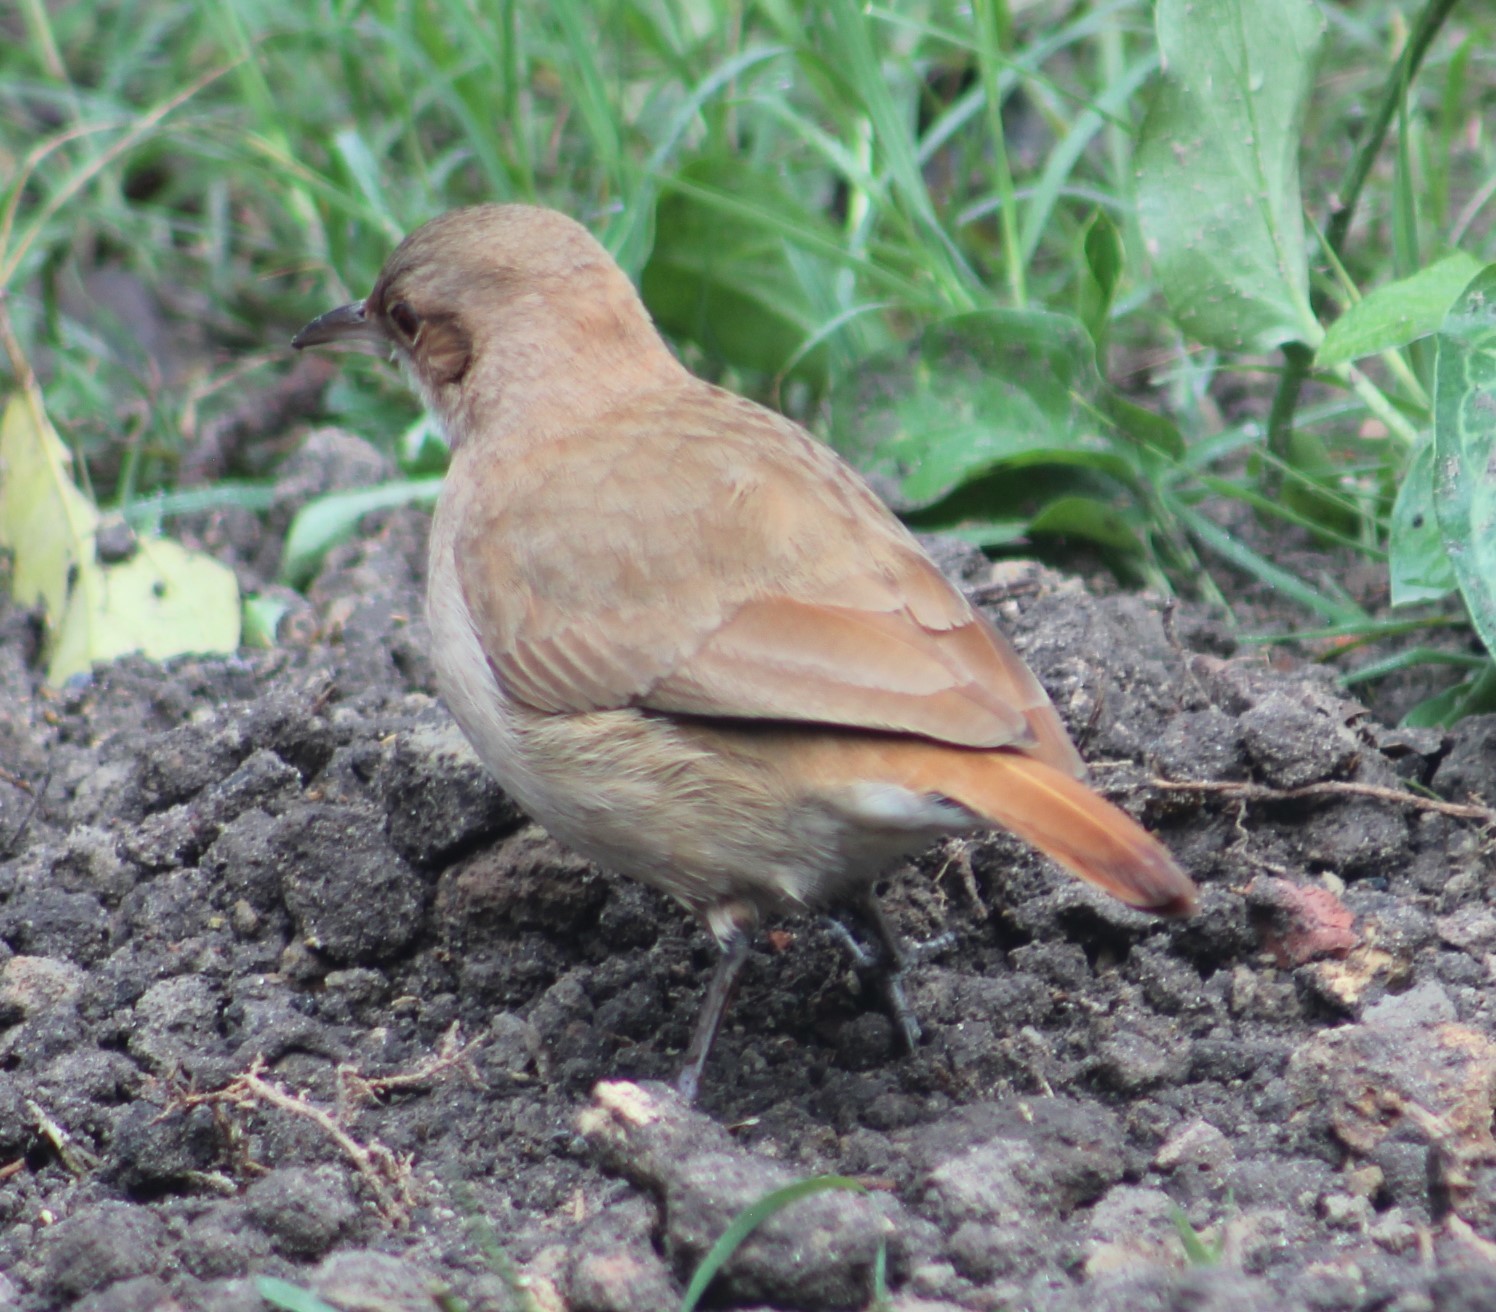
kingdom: Animalia
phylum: Chordata
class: Aves
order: Passeriformes
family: Furnariidae
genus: Furnarius
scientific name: Furnarius rufus
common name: Rufous hornero
